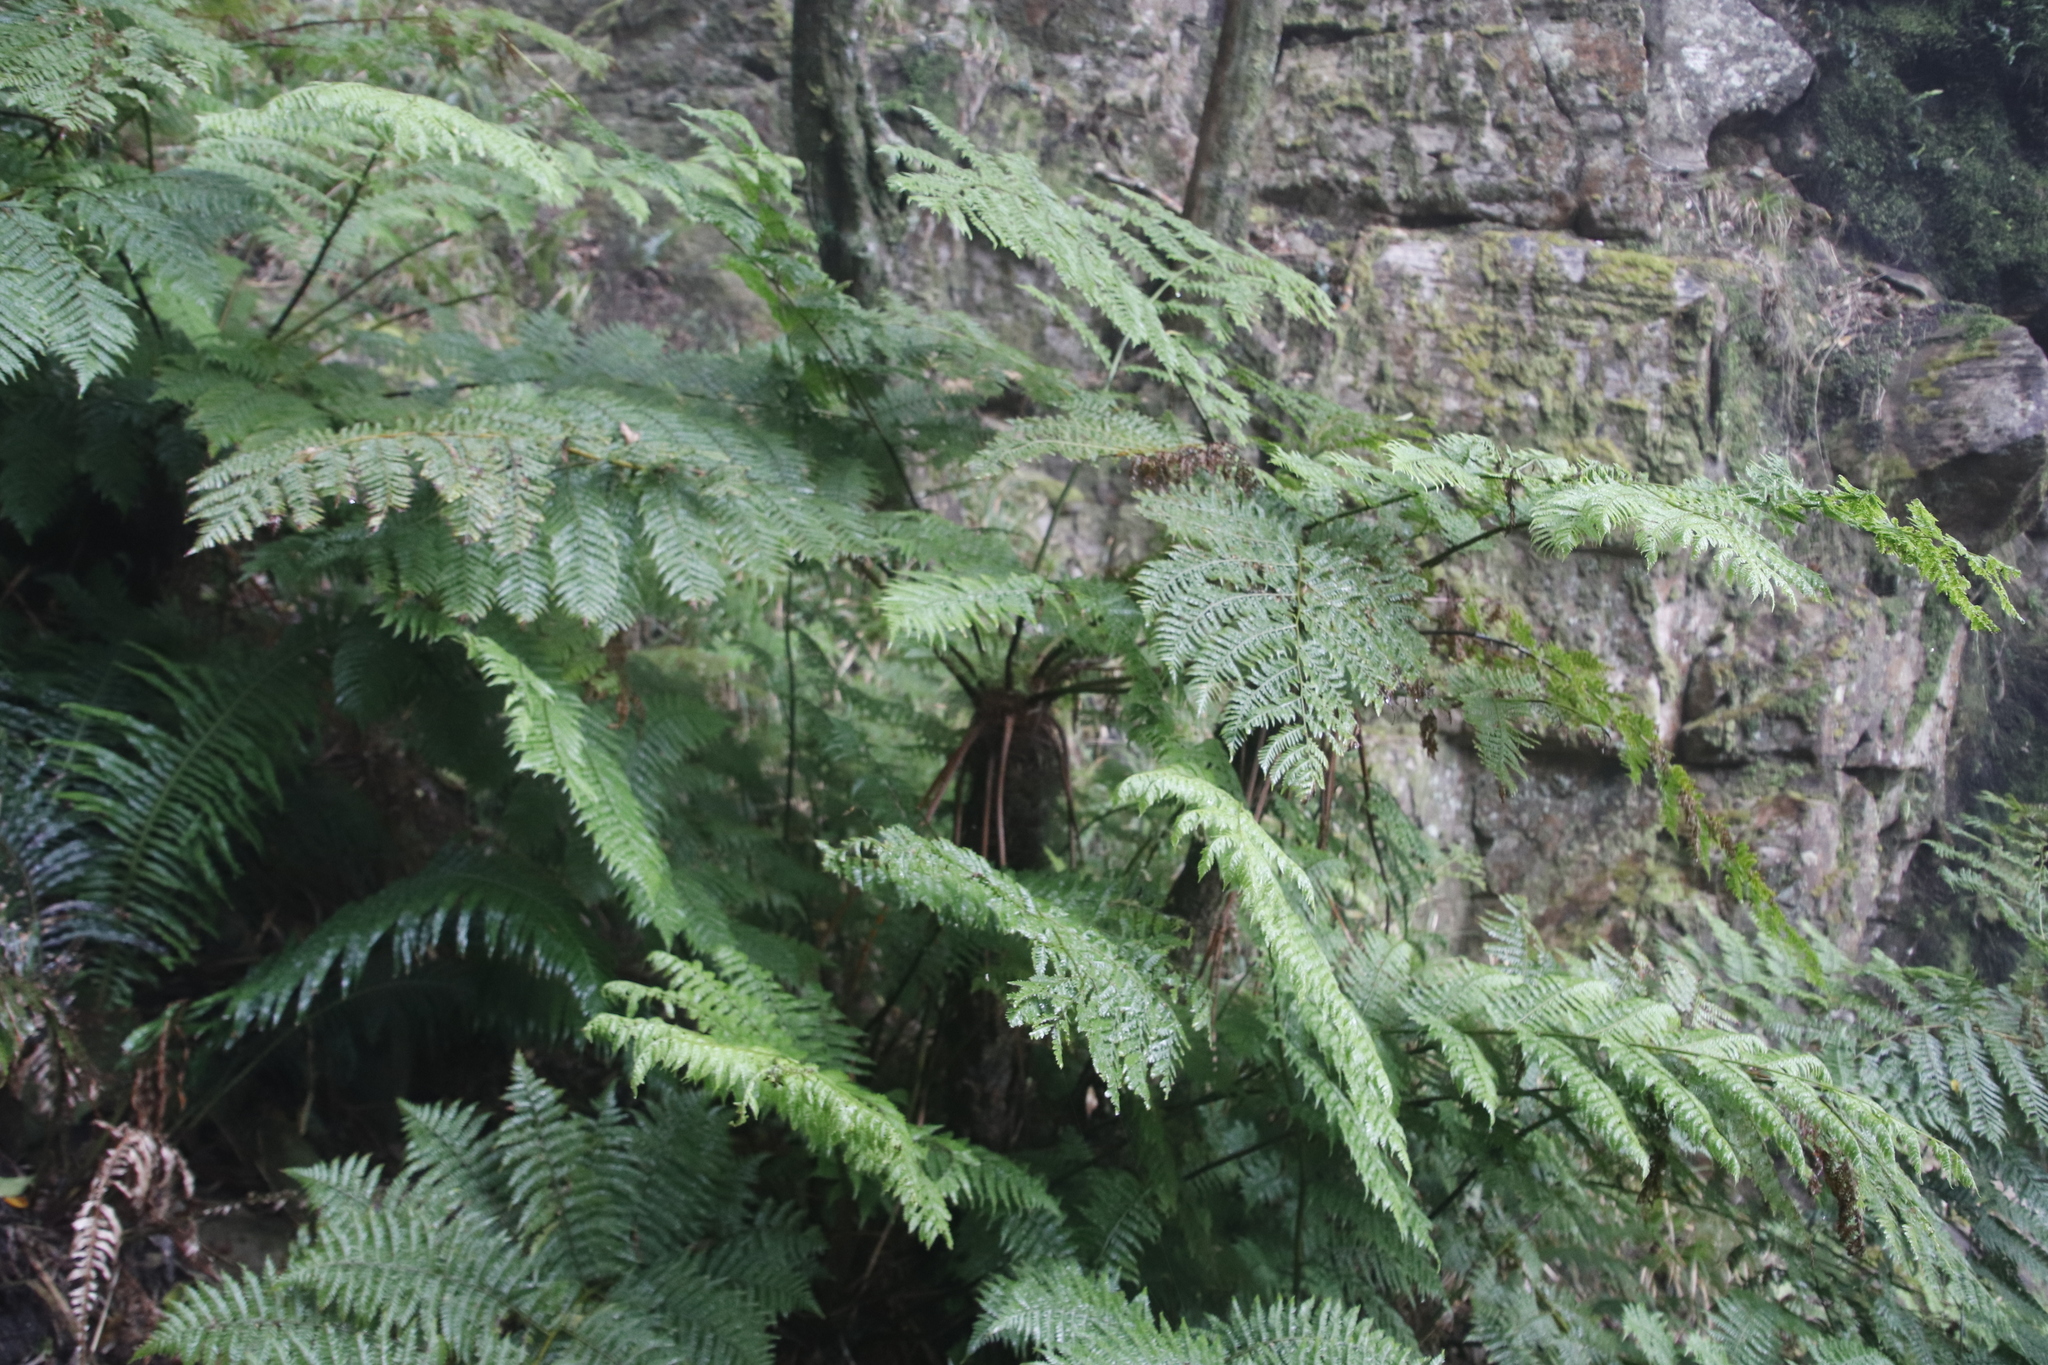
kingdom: Plantae
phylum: Tracheophyta
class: Polypodiopsida
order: Cyatheales
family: Cyatheaceae
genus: Gymnosphaera
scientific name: Gymnosphaera capensis
